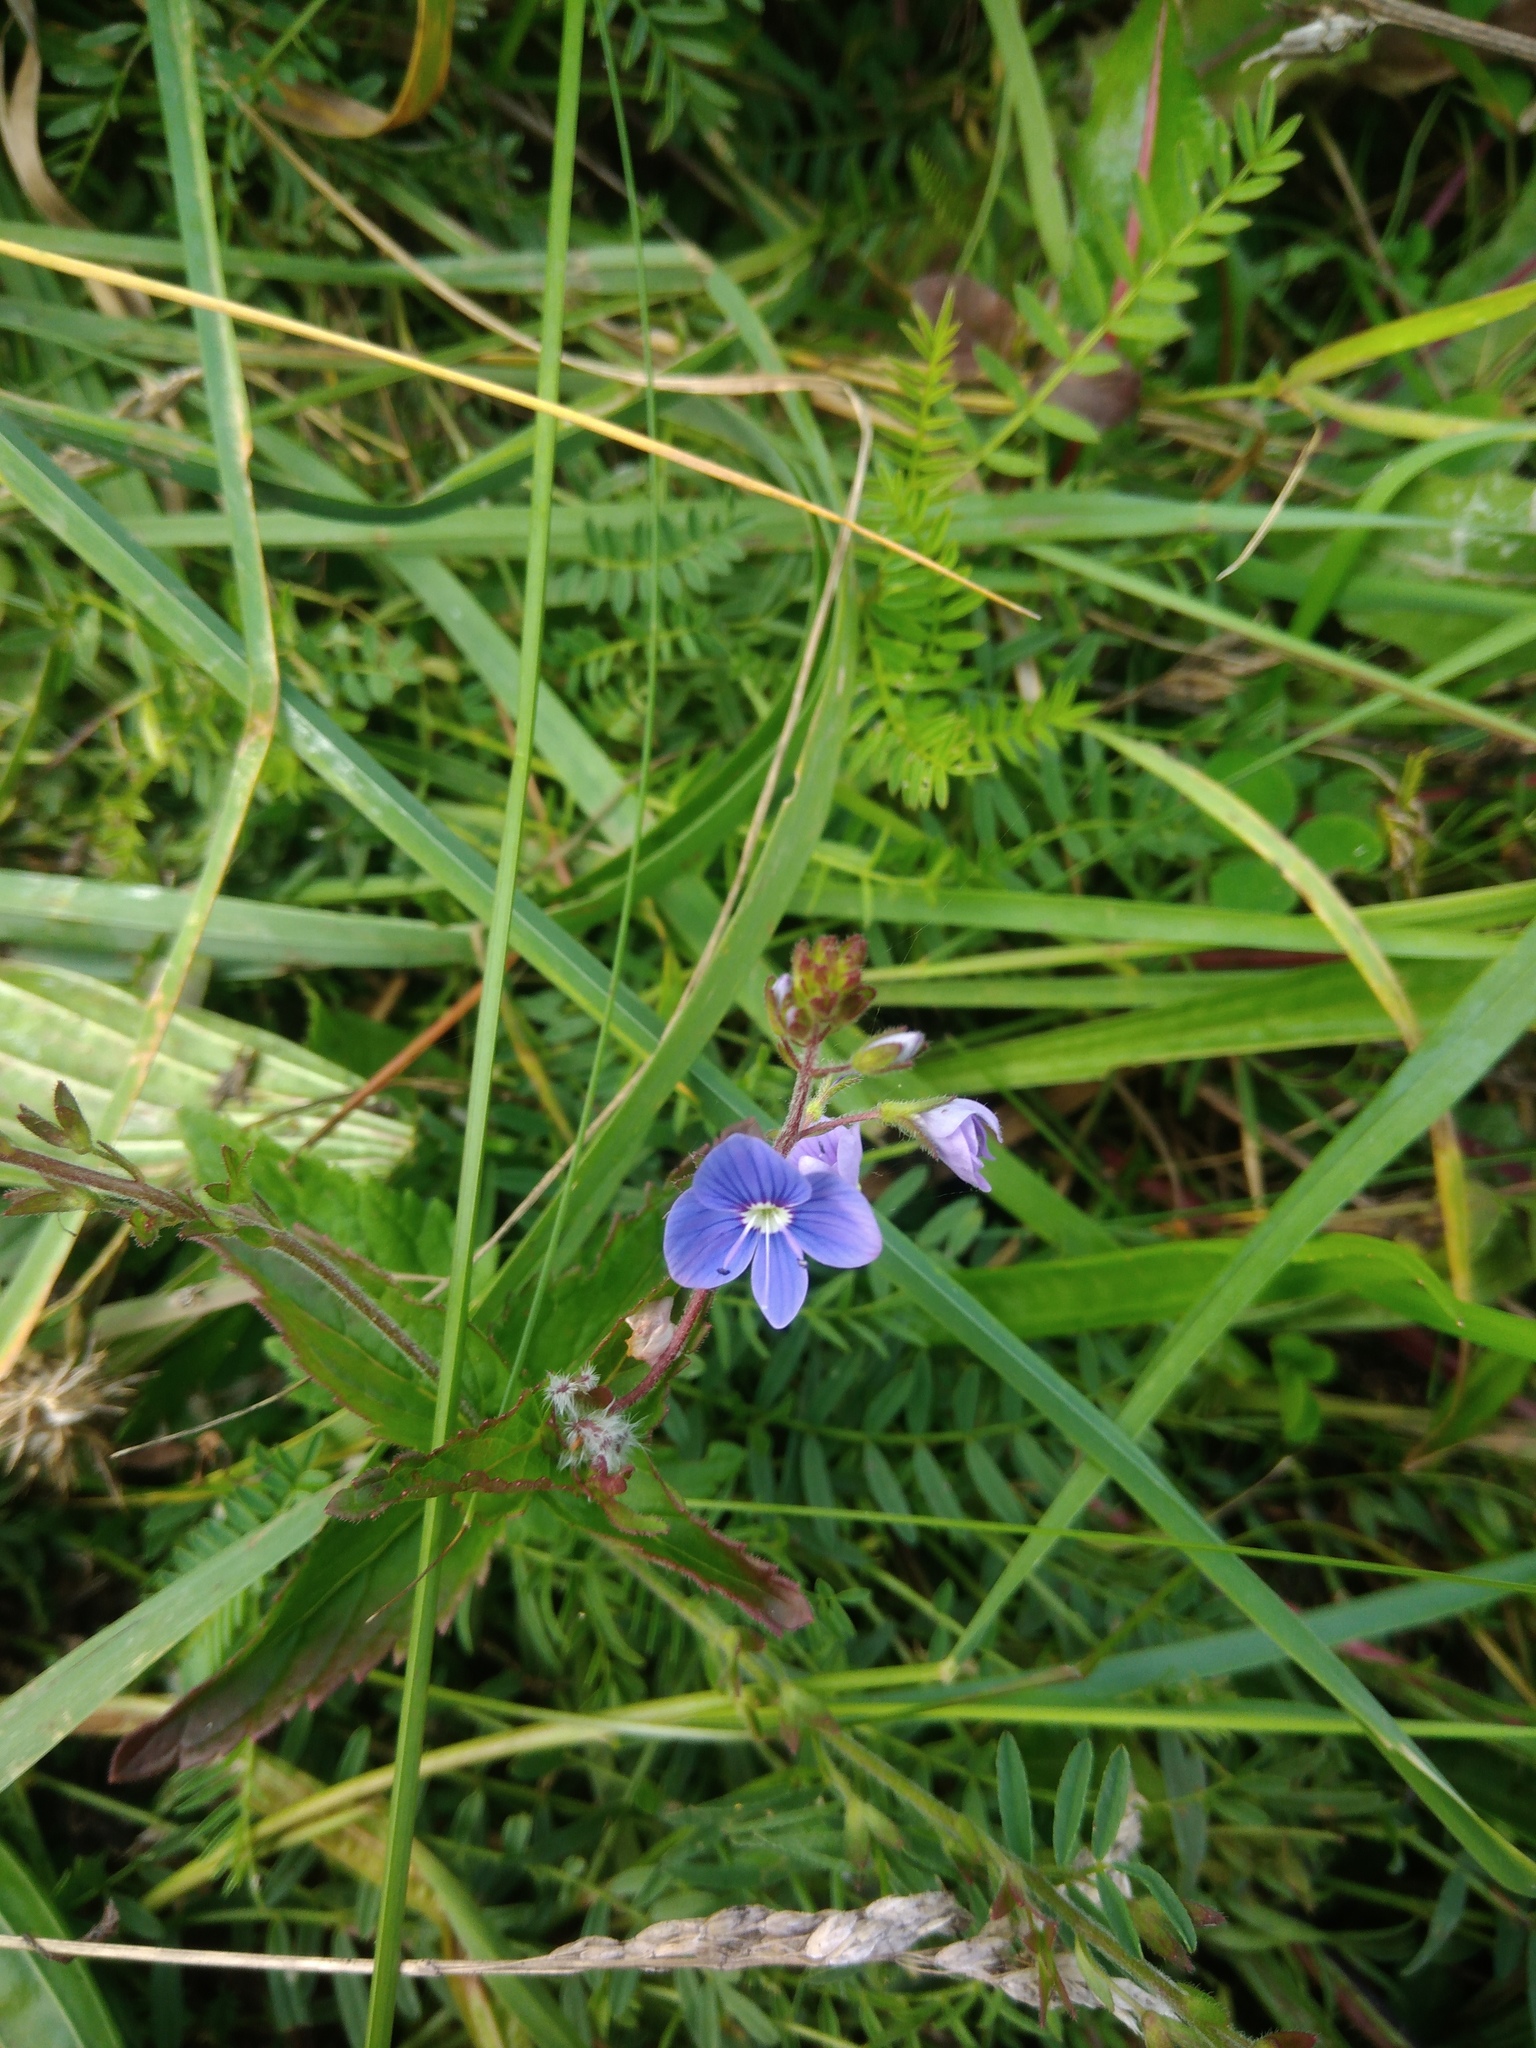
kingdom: Plantae
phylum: Tracheophyta
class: Magnoliopsida
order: Lamiales
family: Plantaginaceae
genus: Veronica
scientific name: Veronica chamaedrys
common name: Germander speedwell
